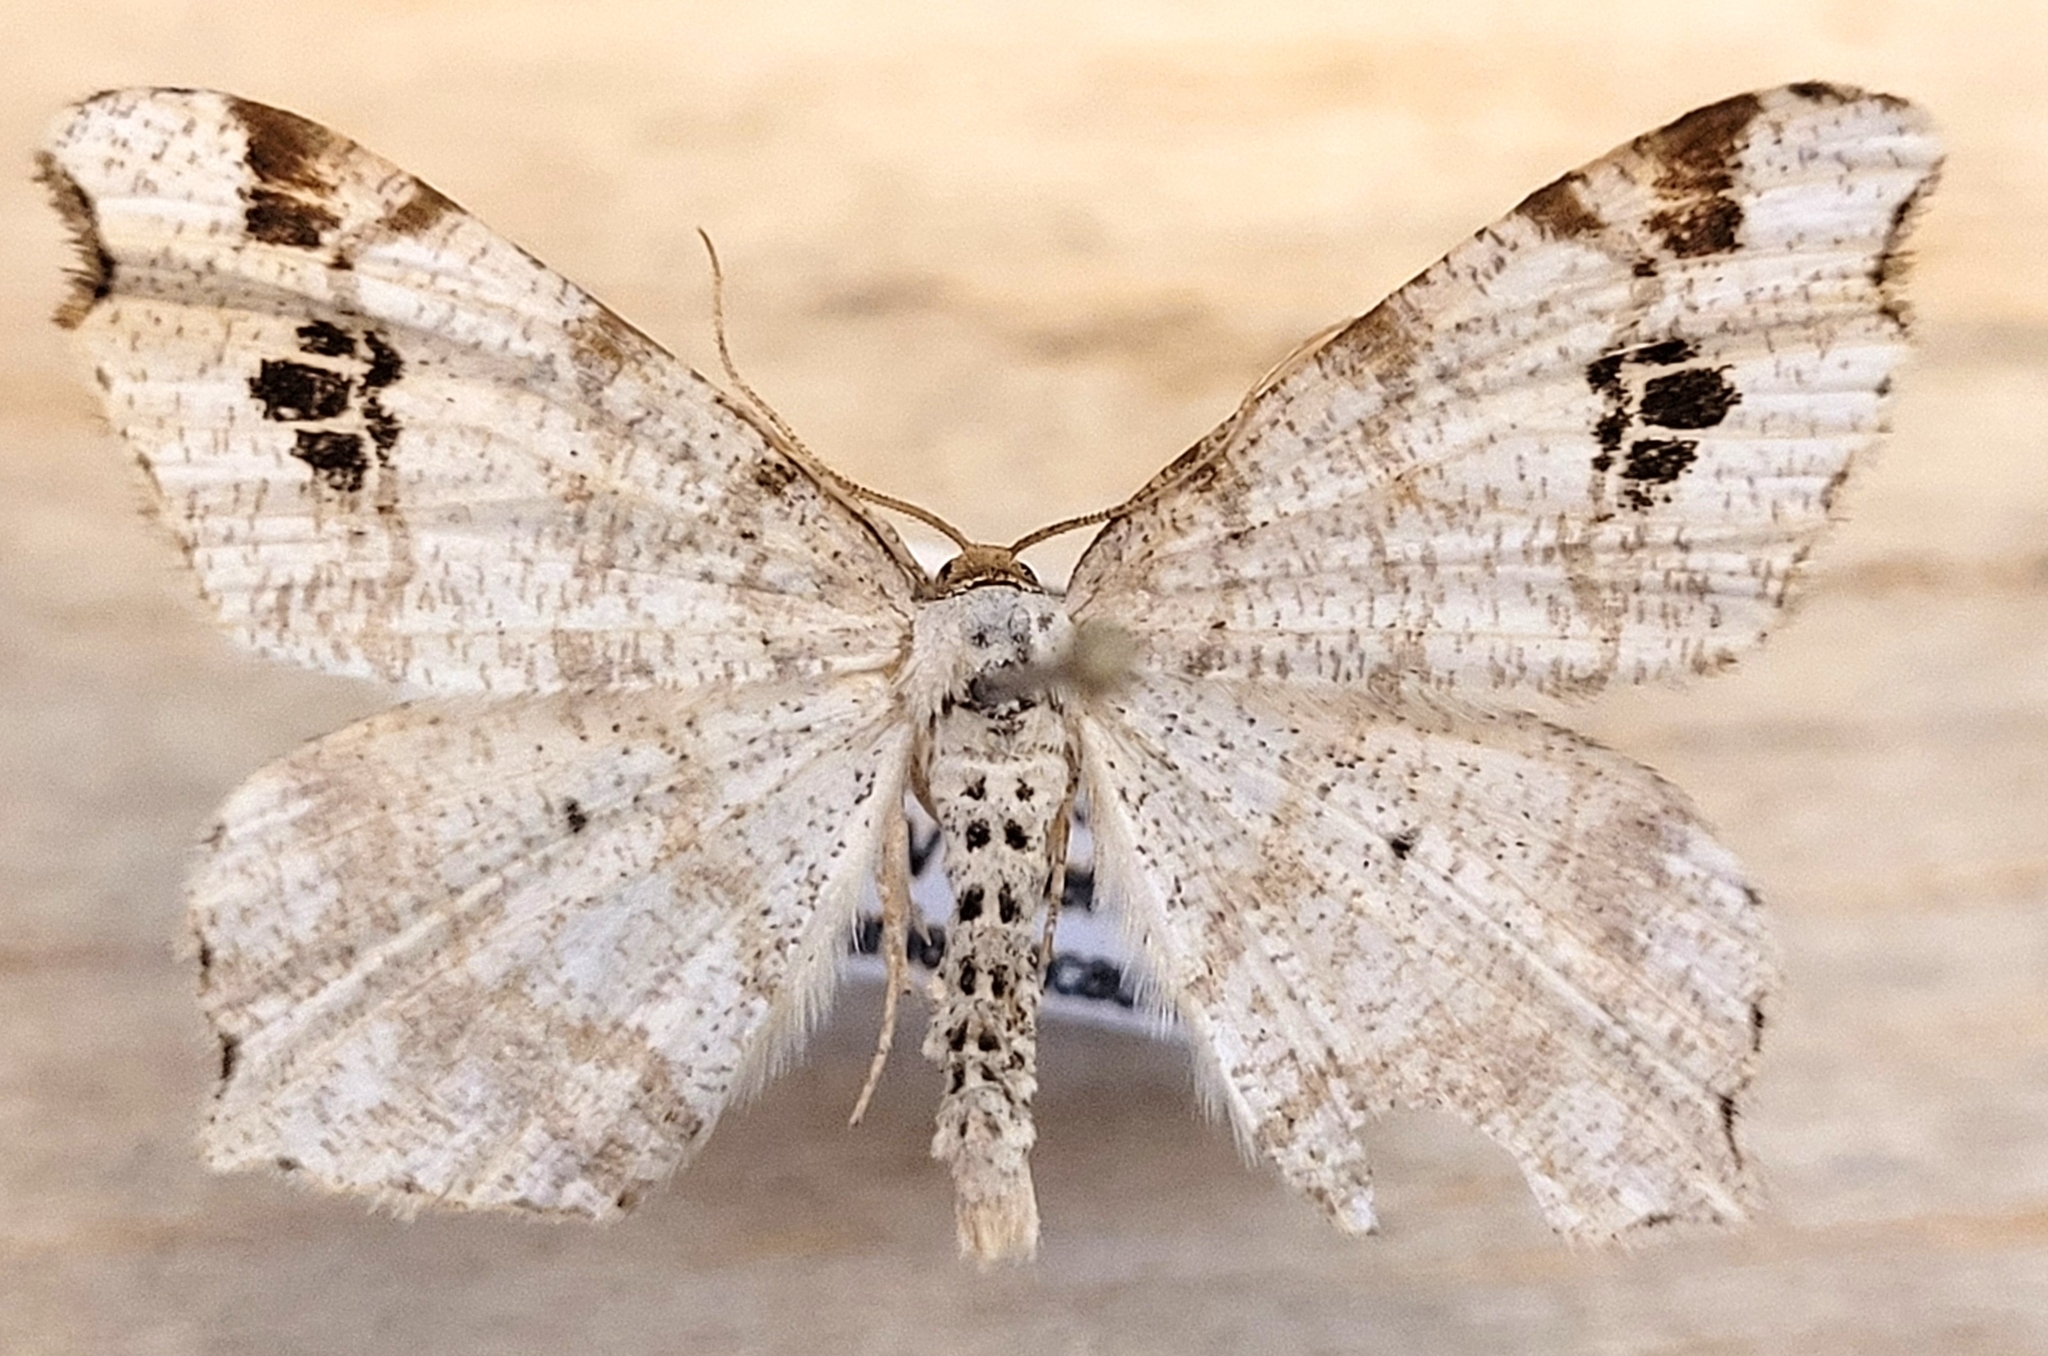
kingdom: Animalia
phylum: Arthropoda
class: Insecta
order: Lepidoptera
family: Geometridae
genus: Macaria
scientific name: Macaria ulsterata
